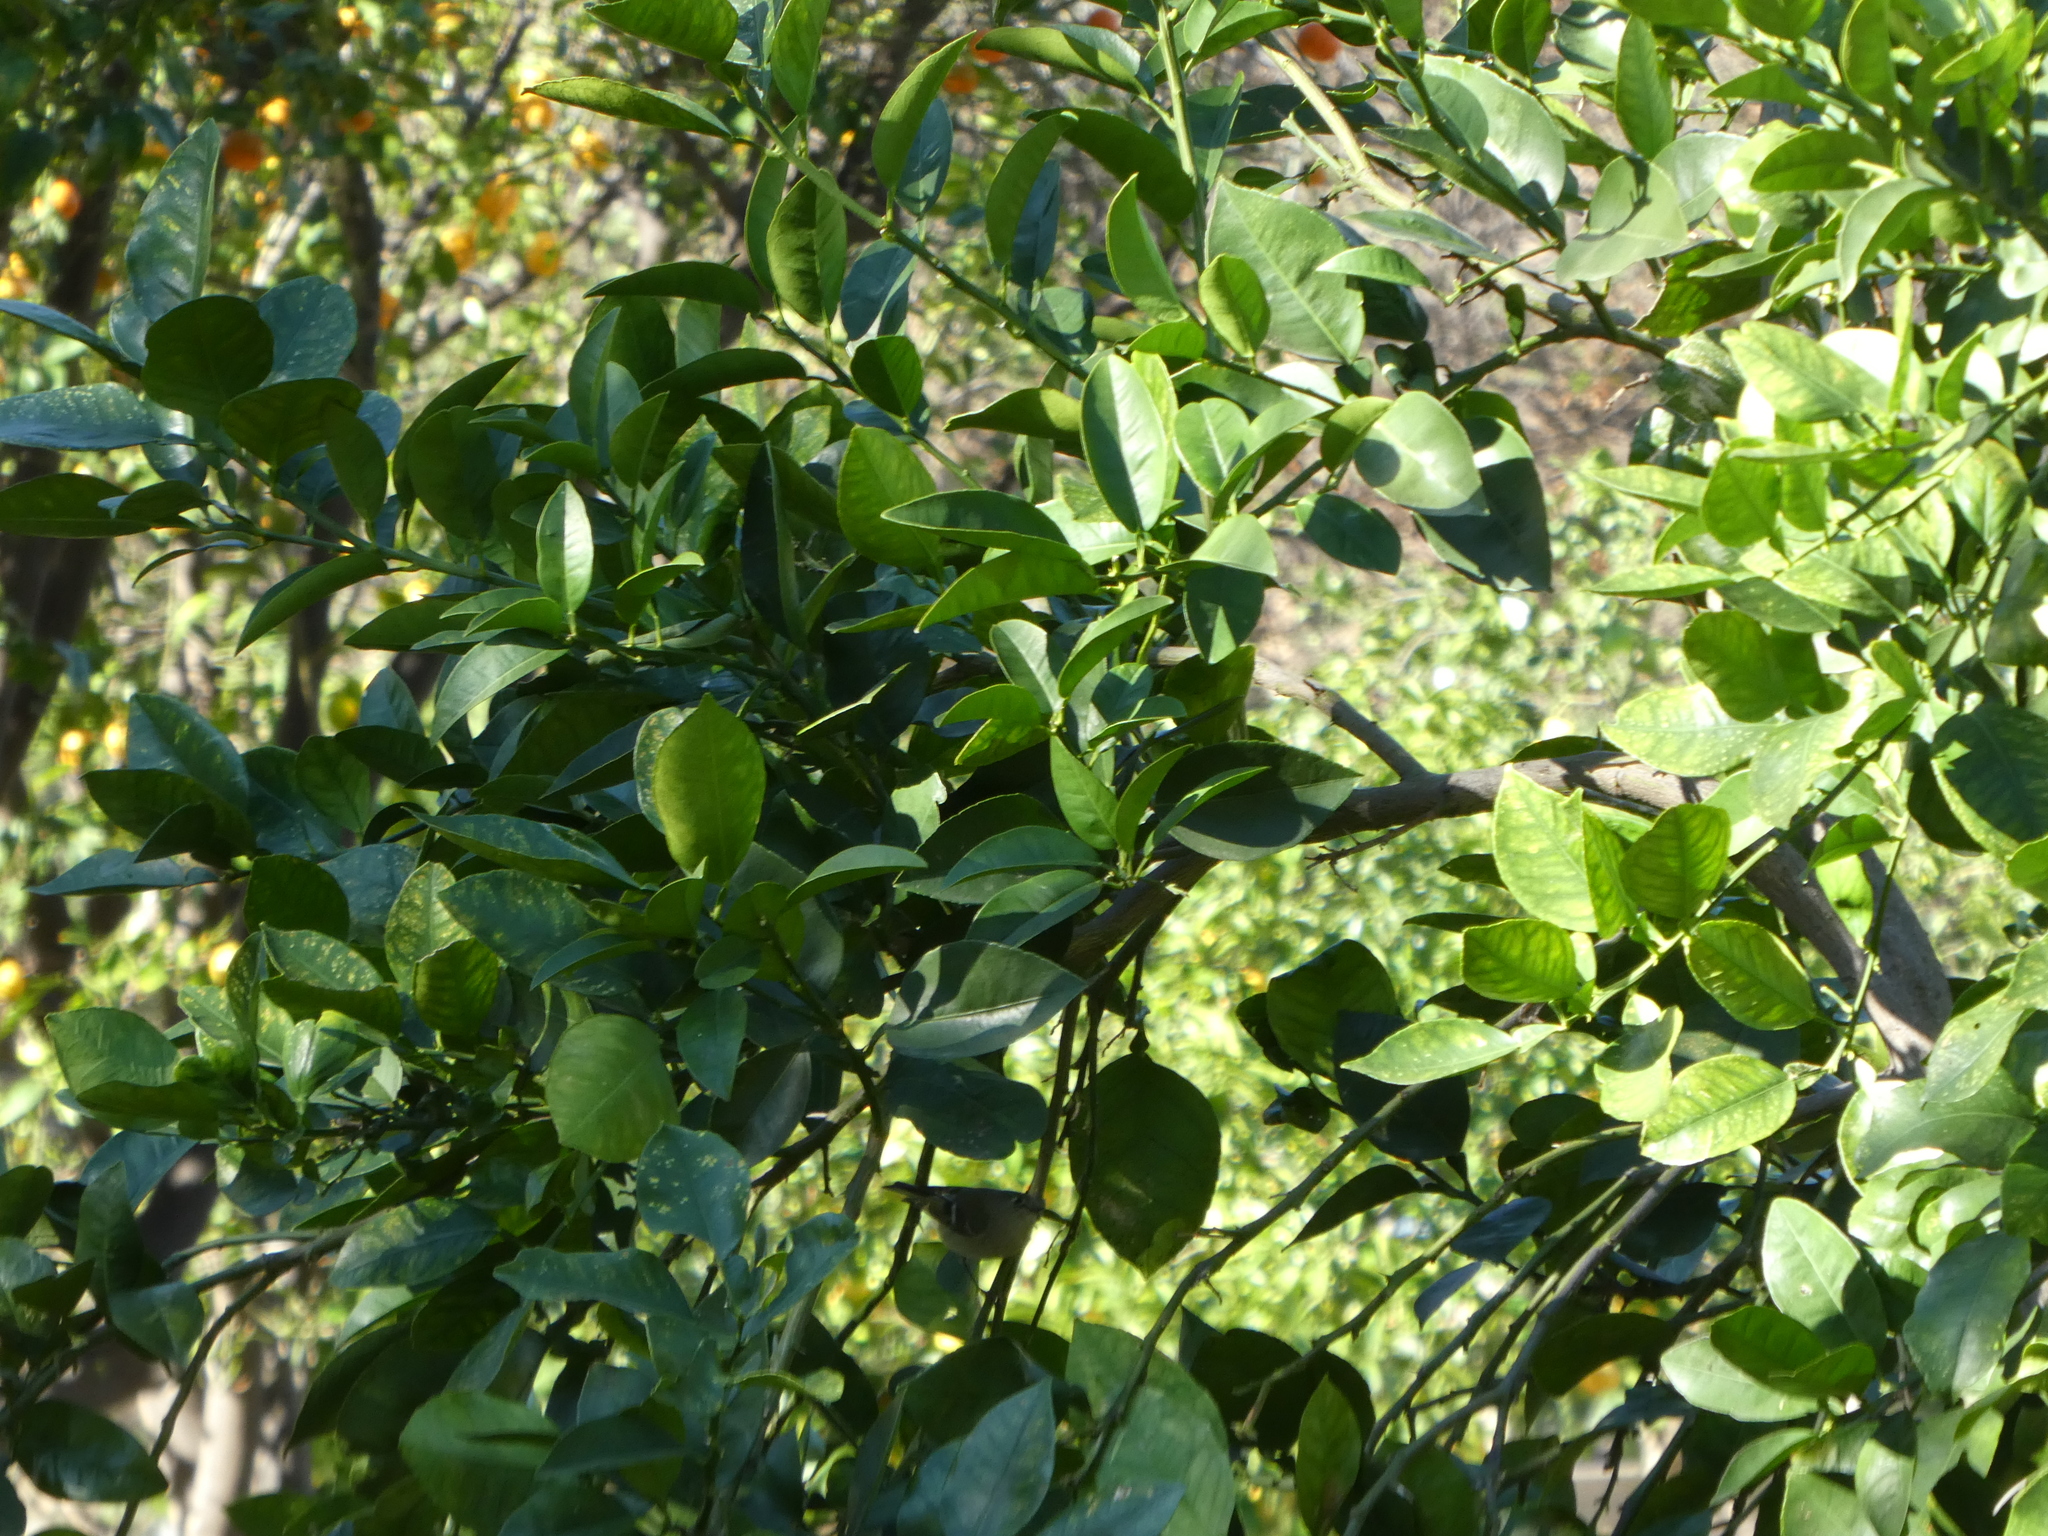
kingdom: Animalia
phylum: Chordata
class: Aves
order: Passeriformes
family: Regulidae
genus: Regulus
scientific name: Regulus calendula
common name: Ruby-crowned kinglet
